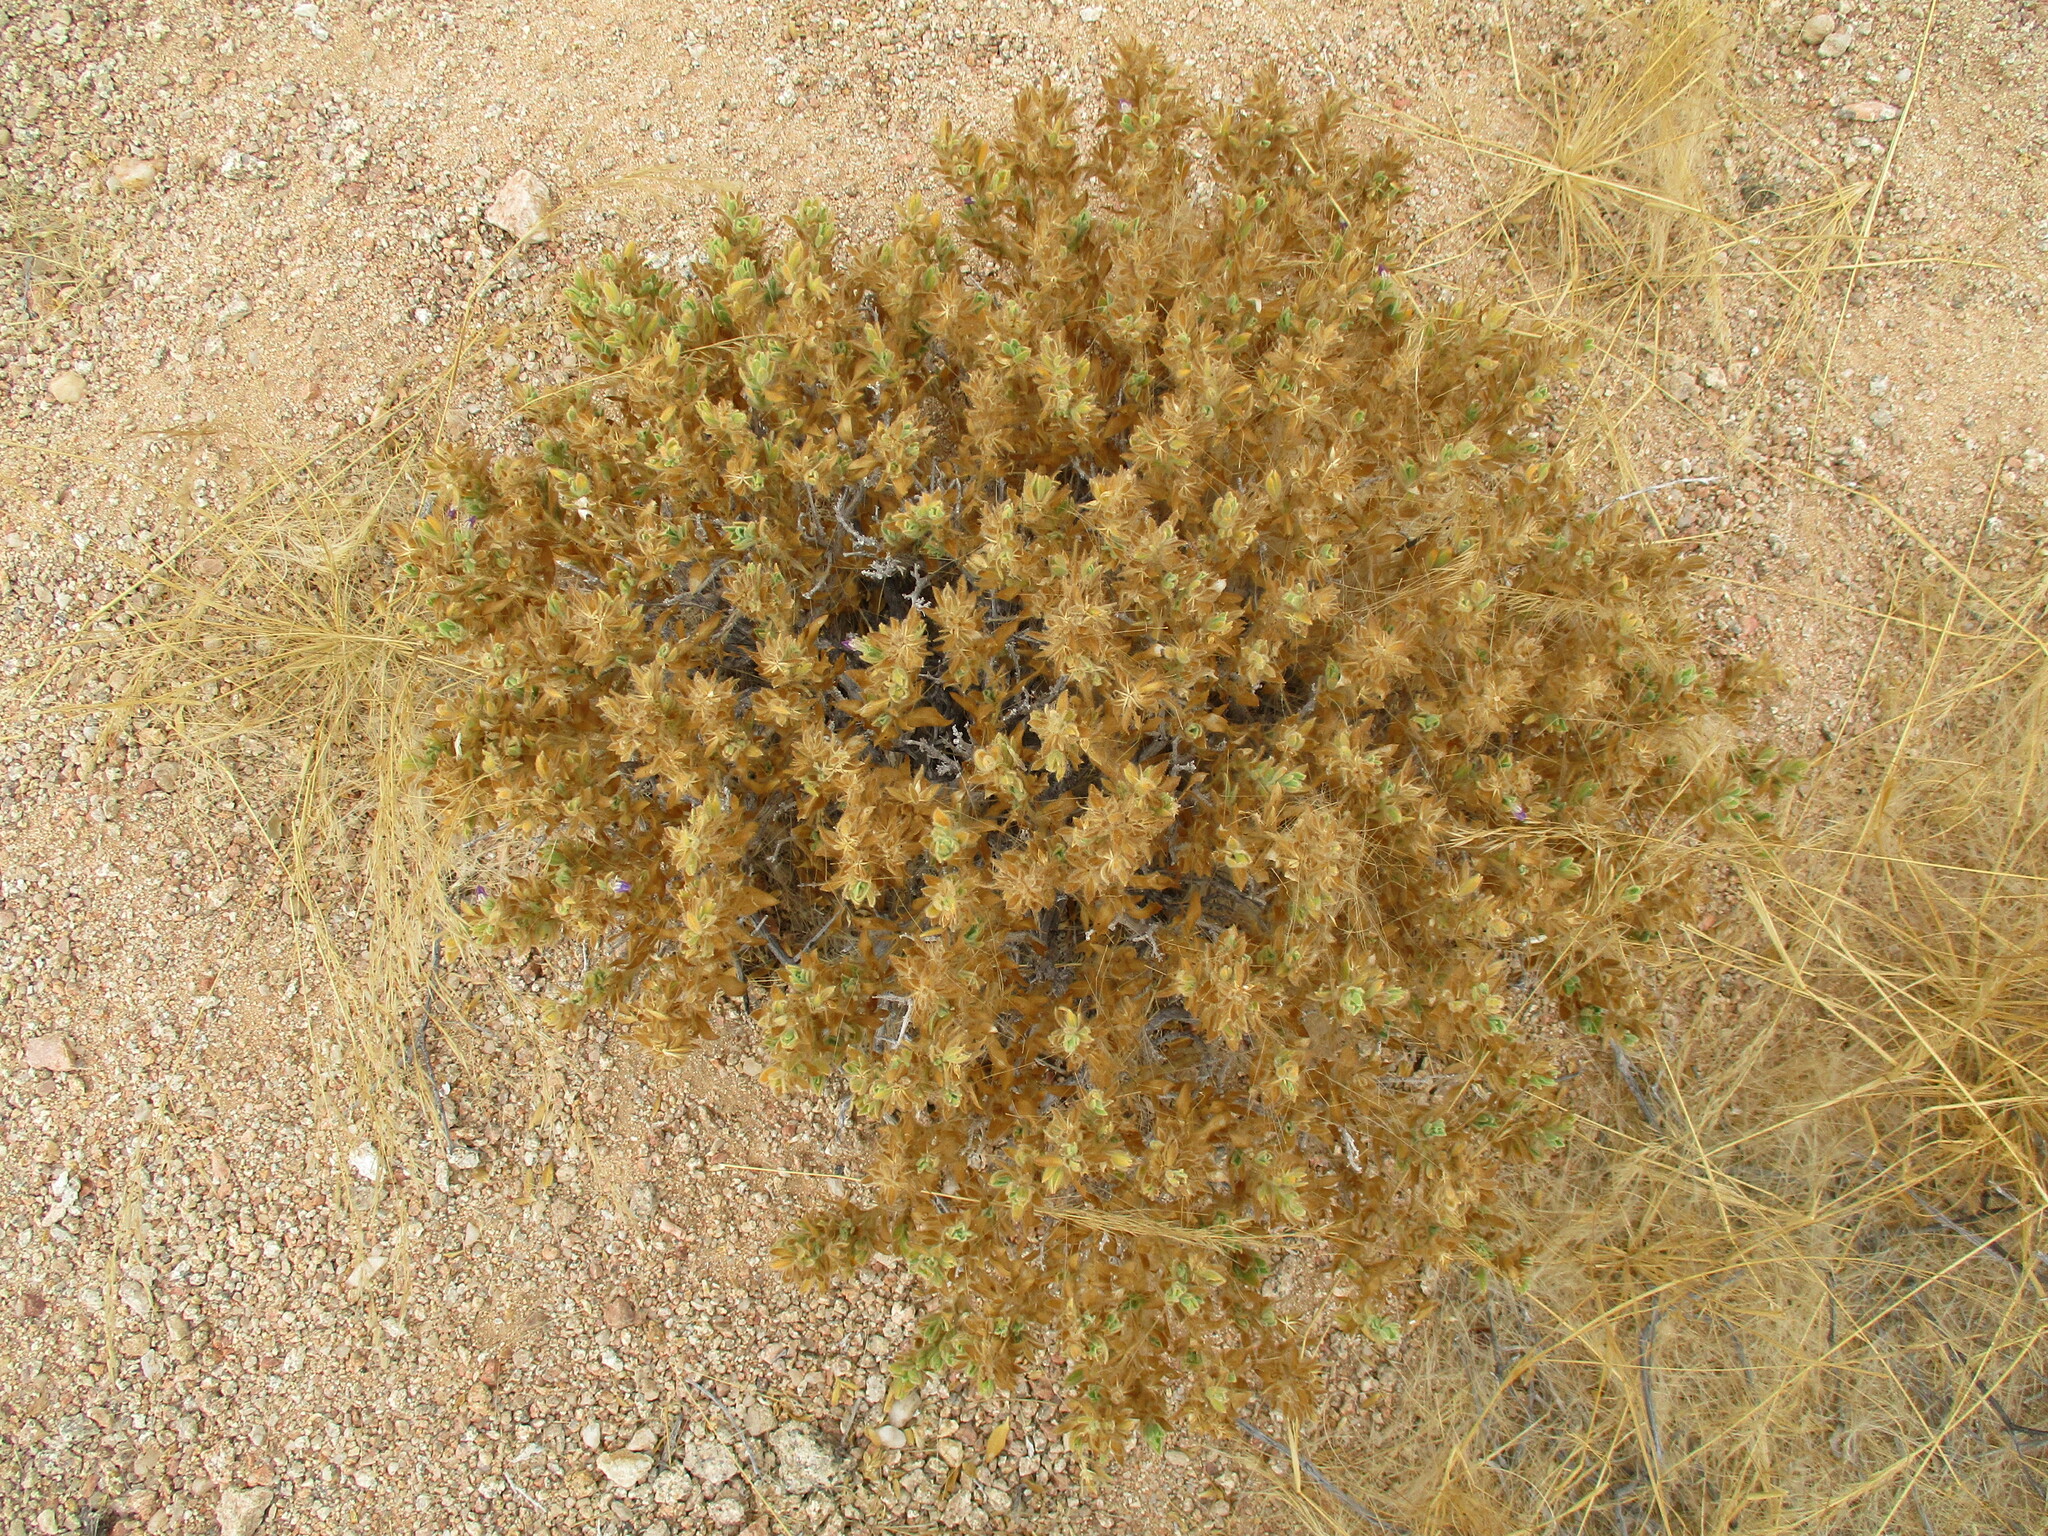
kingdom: Plantae
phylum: Tracheophyta
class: Magnoliopsida
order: Lamiales
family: Acanthaceae
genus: Pogonospermum
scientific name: Pogonospermum
